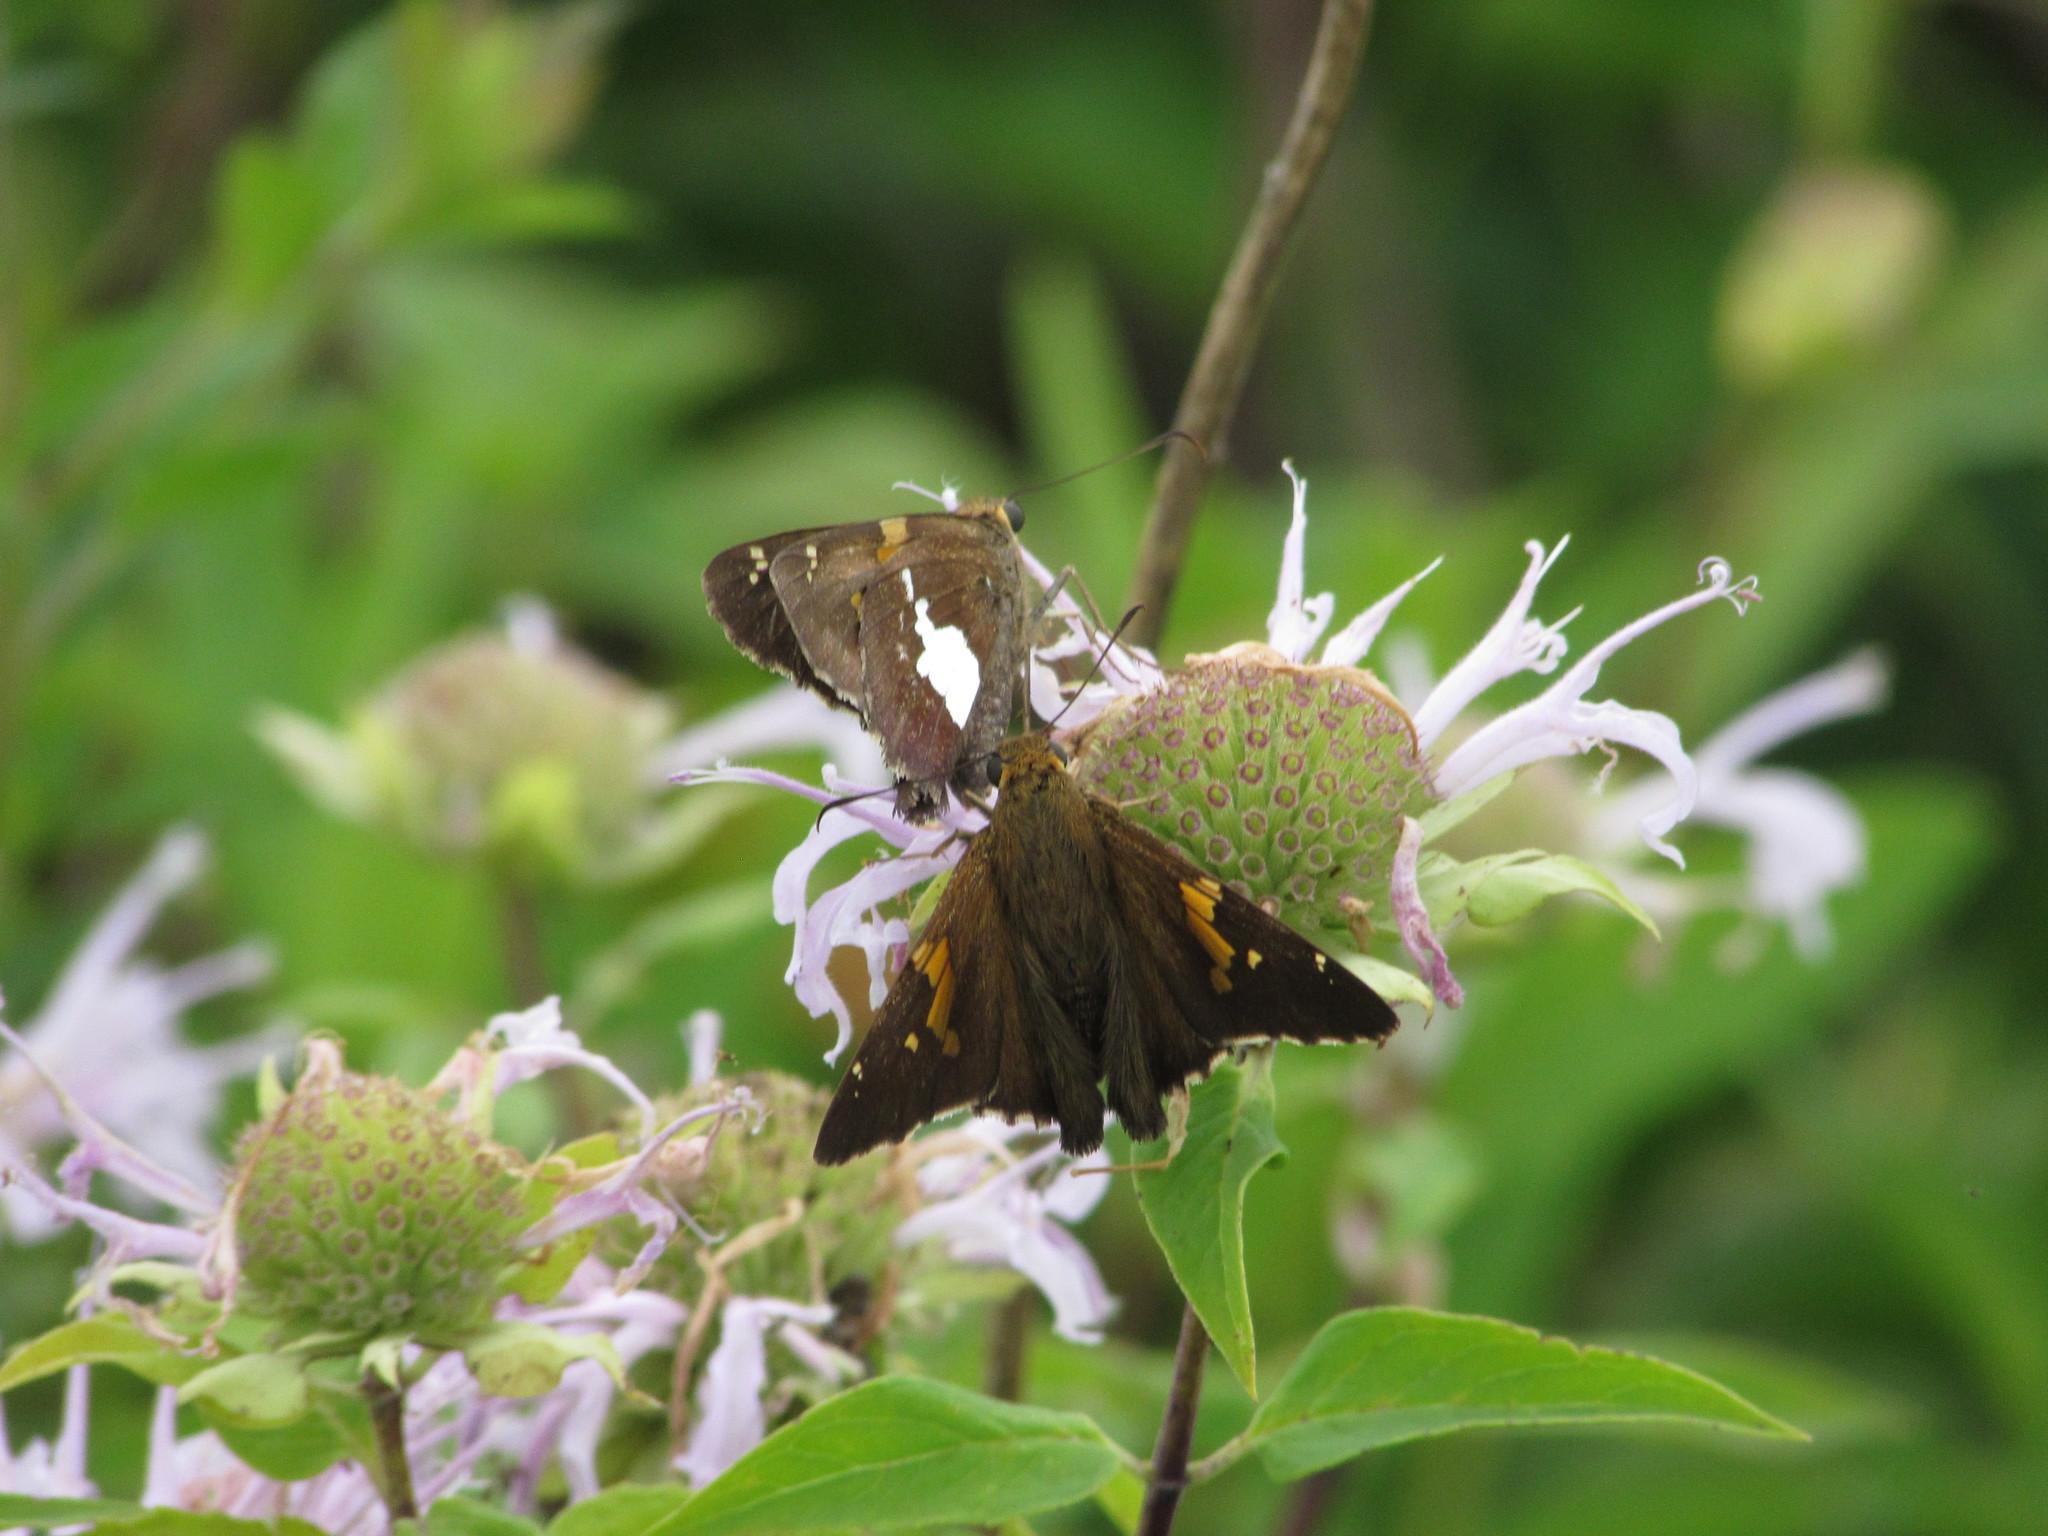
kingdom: Animalia
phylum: Arthropoda
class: Insecta
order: Lepidoptera
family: Hesperiidae
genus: Epargyreus
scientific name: Epargyreus clarus
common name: Silver-spotted skipper
